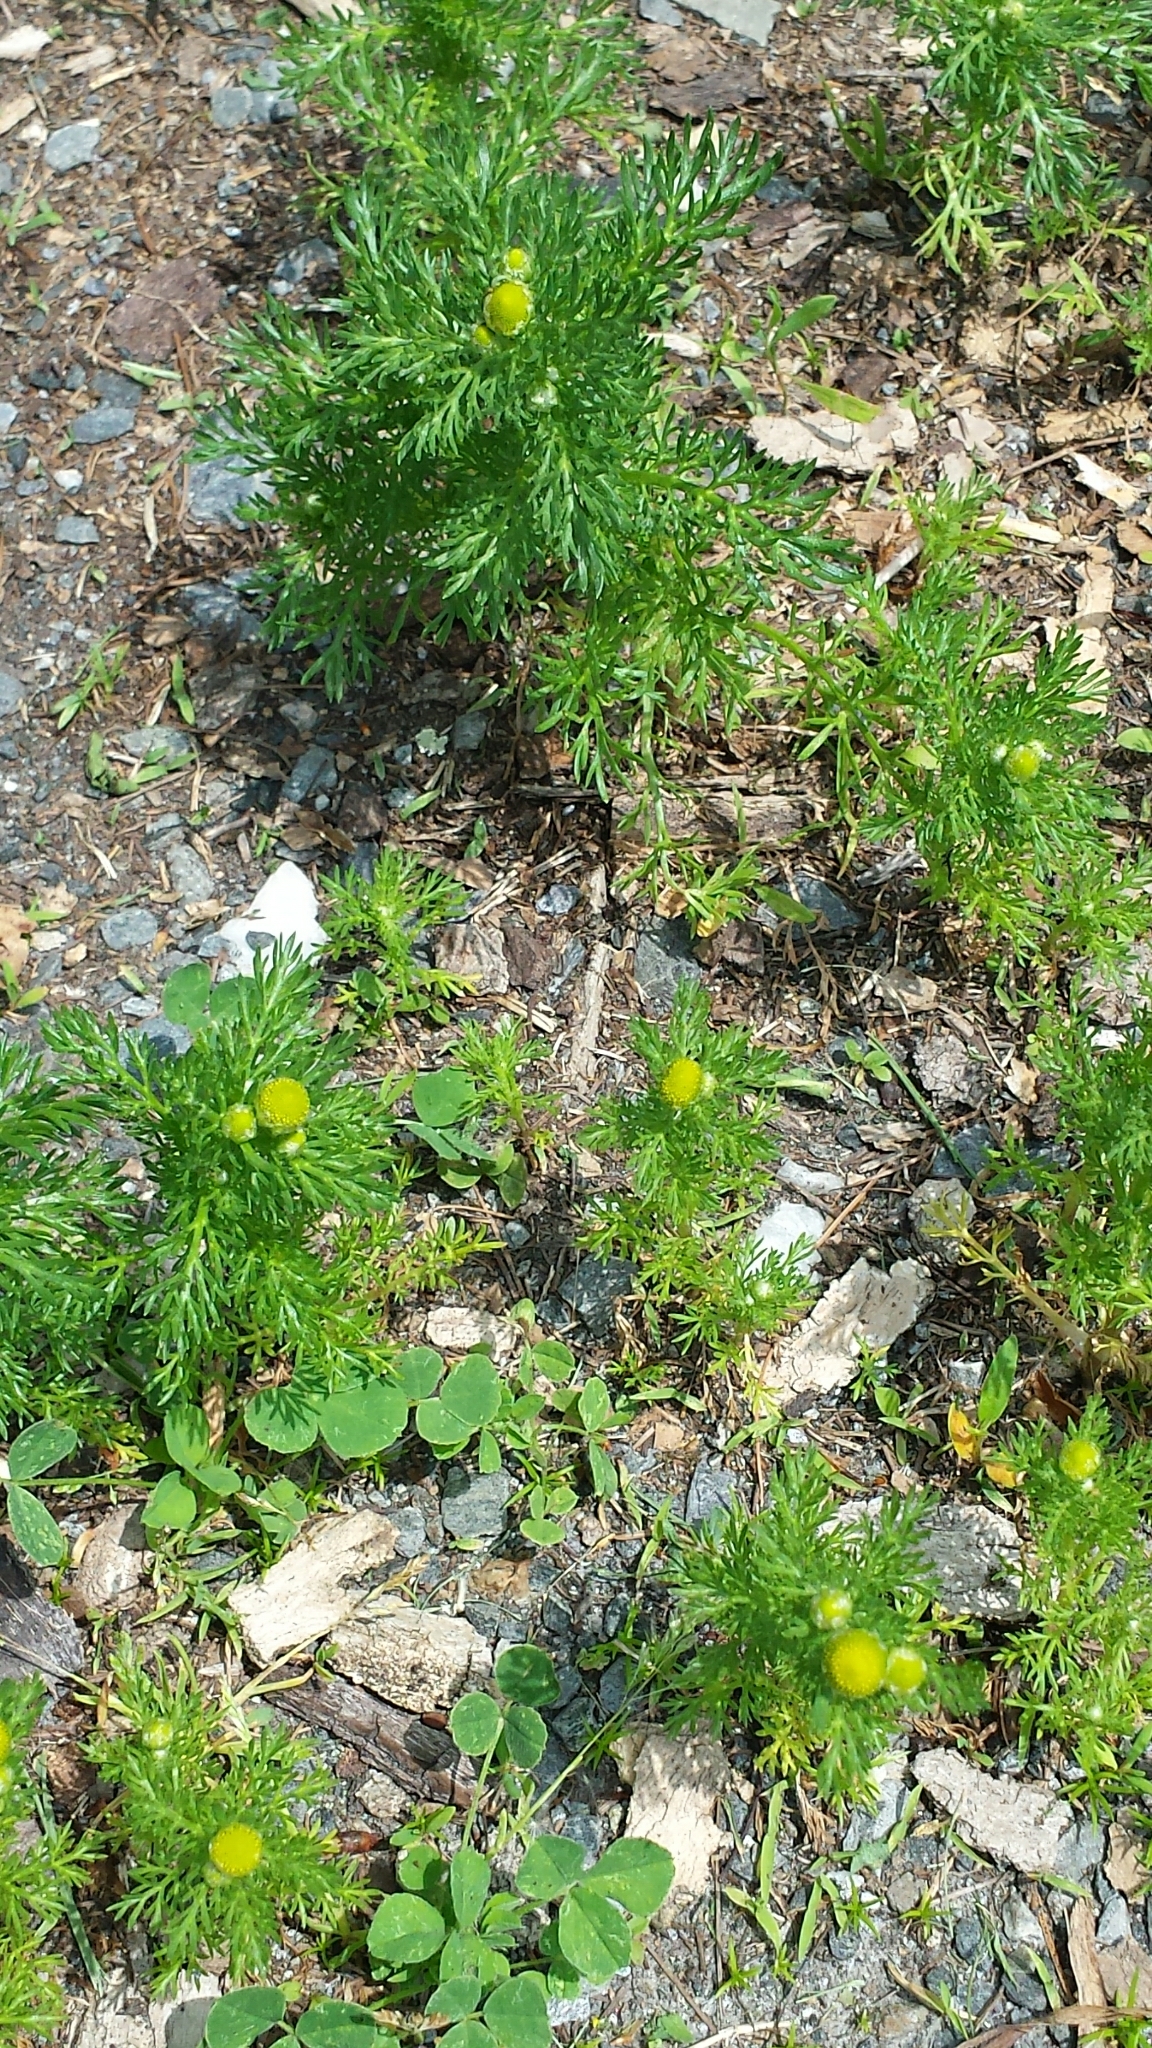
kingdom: Plantae
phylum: Tracheophyta
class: Magnoliopsida
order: Asterales
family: Asteraceae
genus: Matricaria
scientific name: Matricaria discoidea
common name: Disc mayweed
